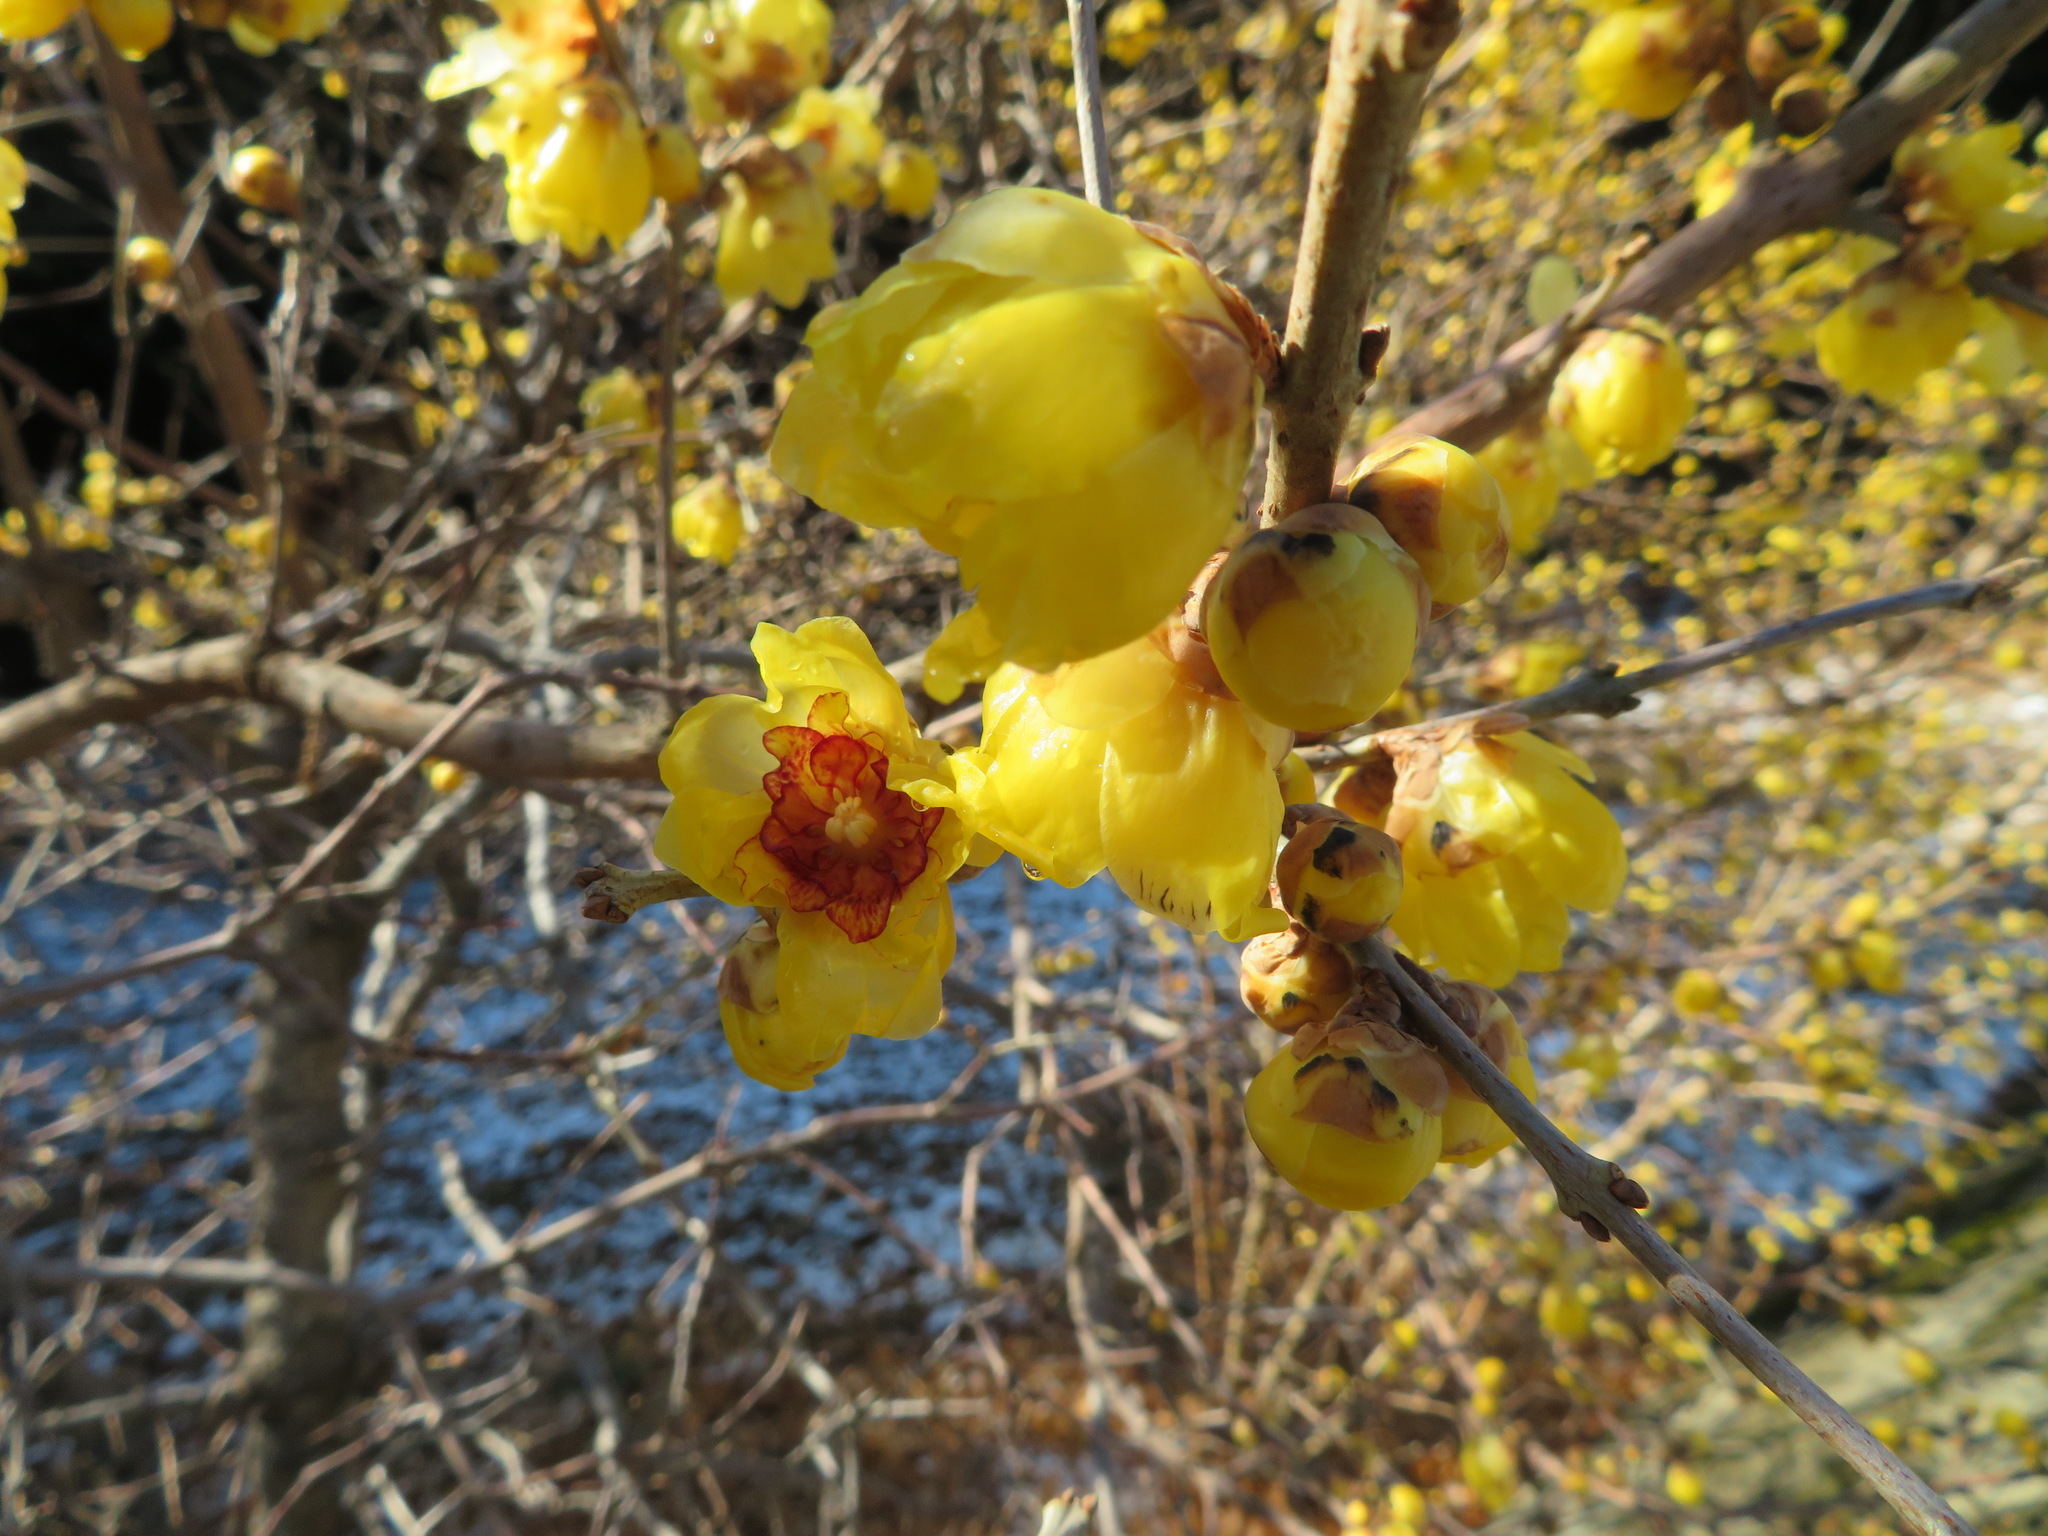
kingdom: Plantae
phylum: Tracheophyta
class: Magnoliopsida
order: Laurales
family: Calycanthaceae
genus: Chimonanthus
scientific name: Chimonanthus praecox
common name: Wintersweet
